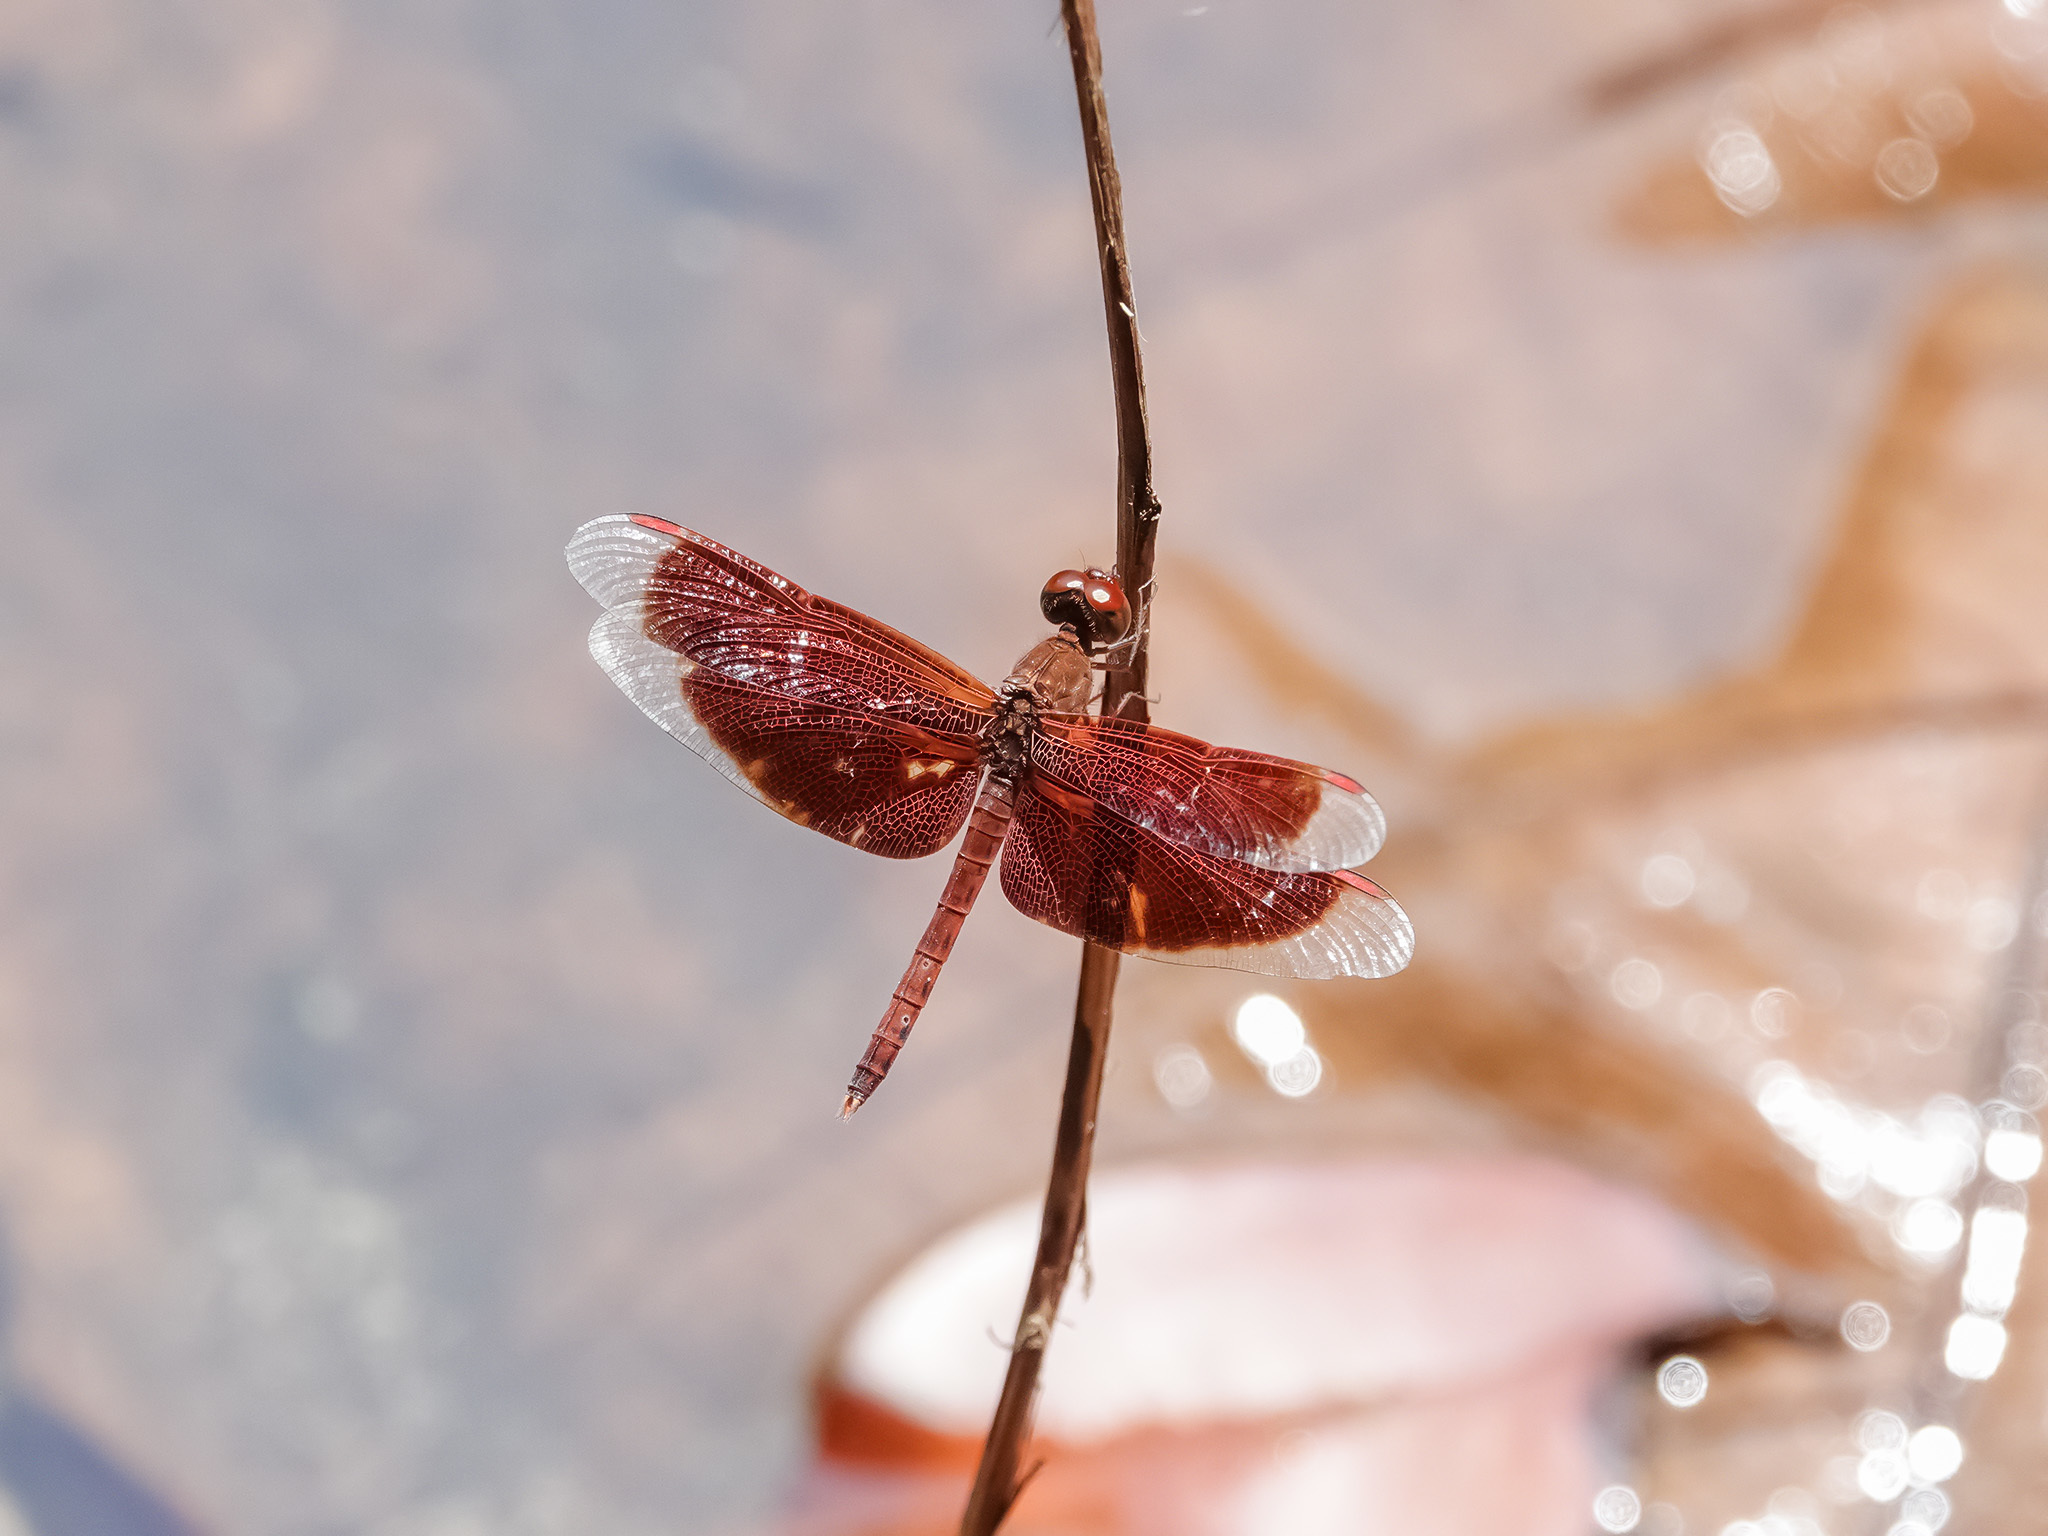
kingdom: Animalia
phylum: Arthropoda
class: Insecta
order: Odonata
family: Libellulidae
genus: Neurothemis
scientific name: Neurothemis fluctuans
